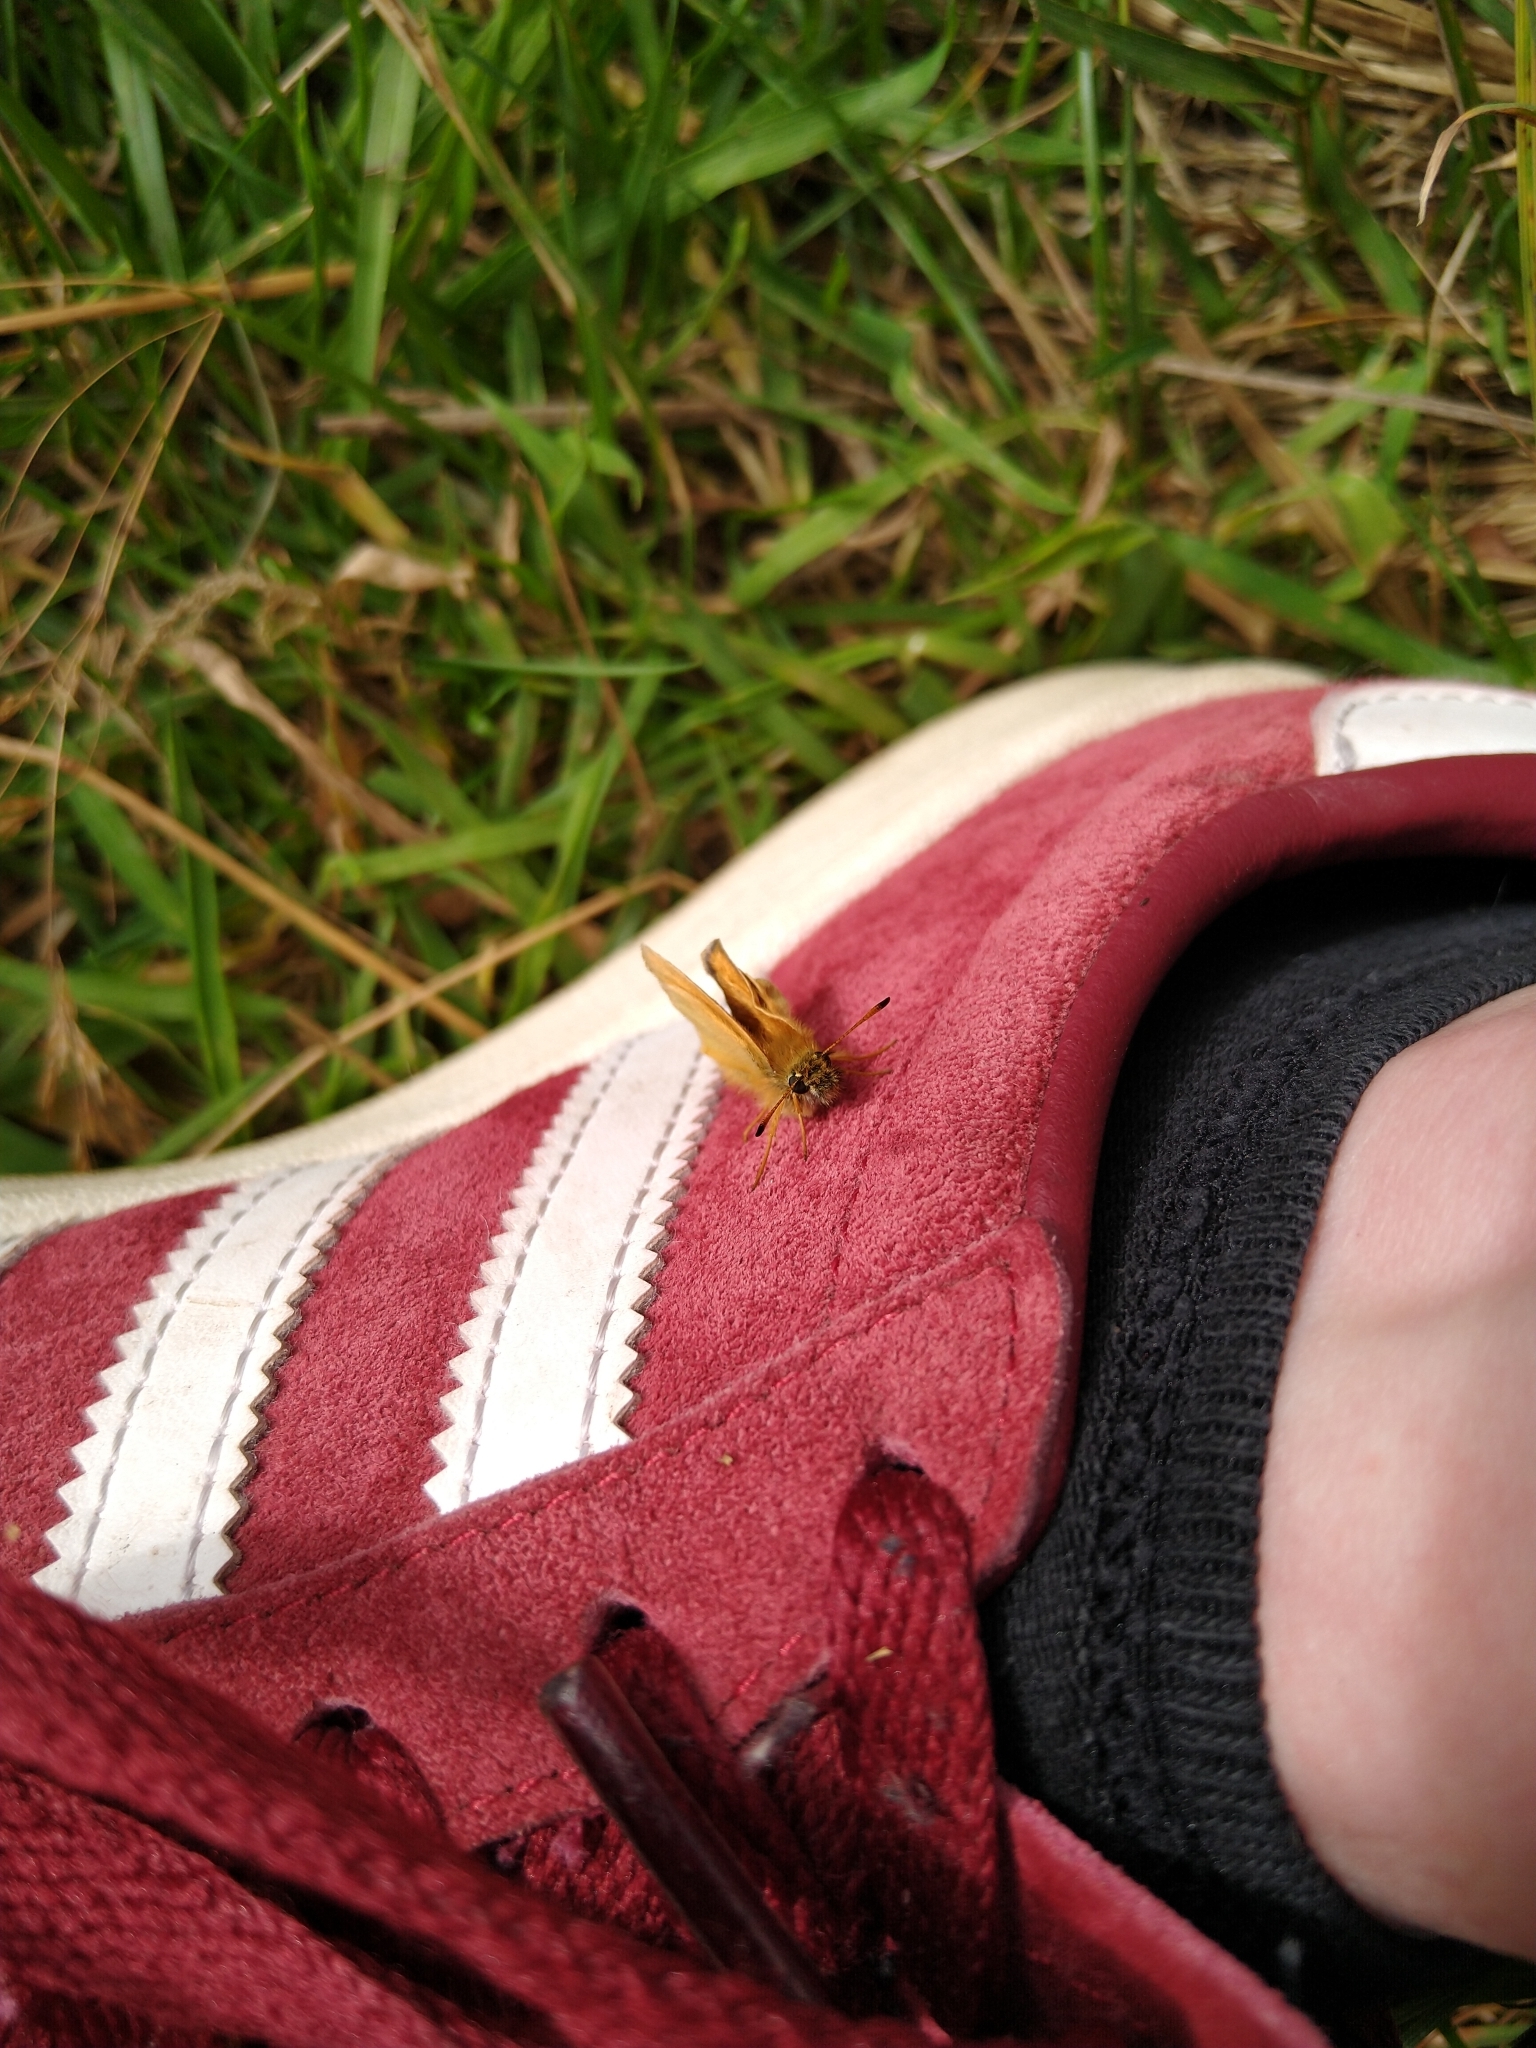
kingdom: Animalia
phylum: Arthropoda
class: Insecta
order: Lepidoptera
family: Hesperiidae
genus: Thymelicus
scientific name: Thymelicus lineola
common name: Essex skipper
